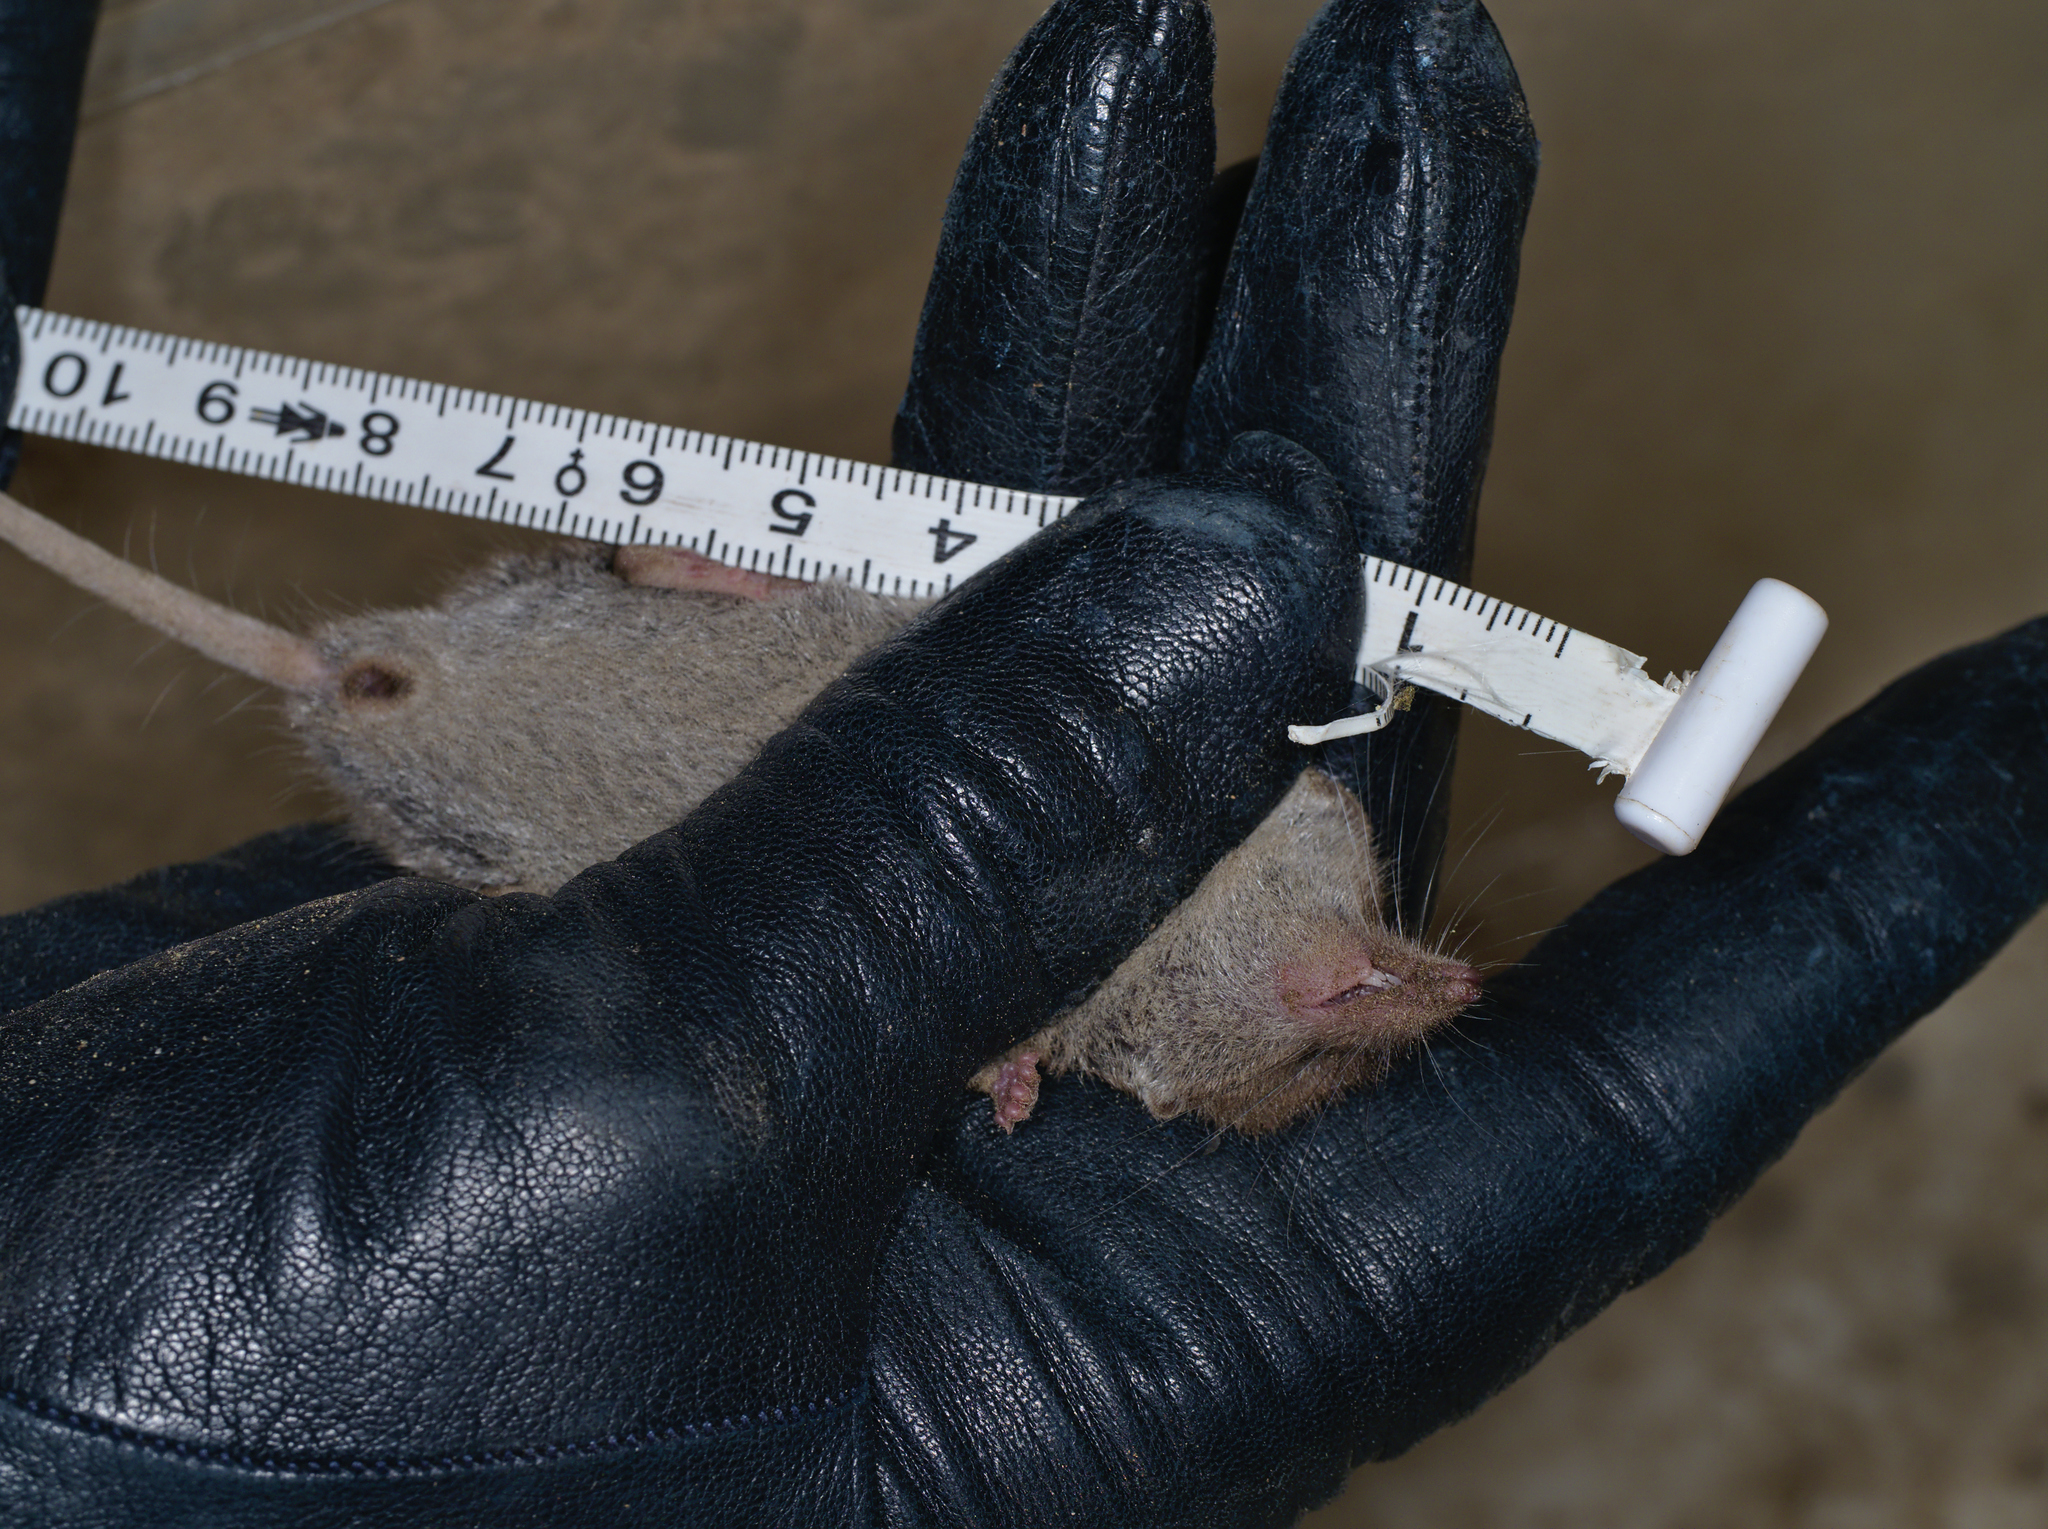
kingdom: Animalia
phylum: Chordata
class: Mammalia
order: Soricomorpha
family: Soricidae
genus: Crocidura
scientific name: Crocidura russula
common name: Greater white-toothed shrew
